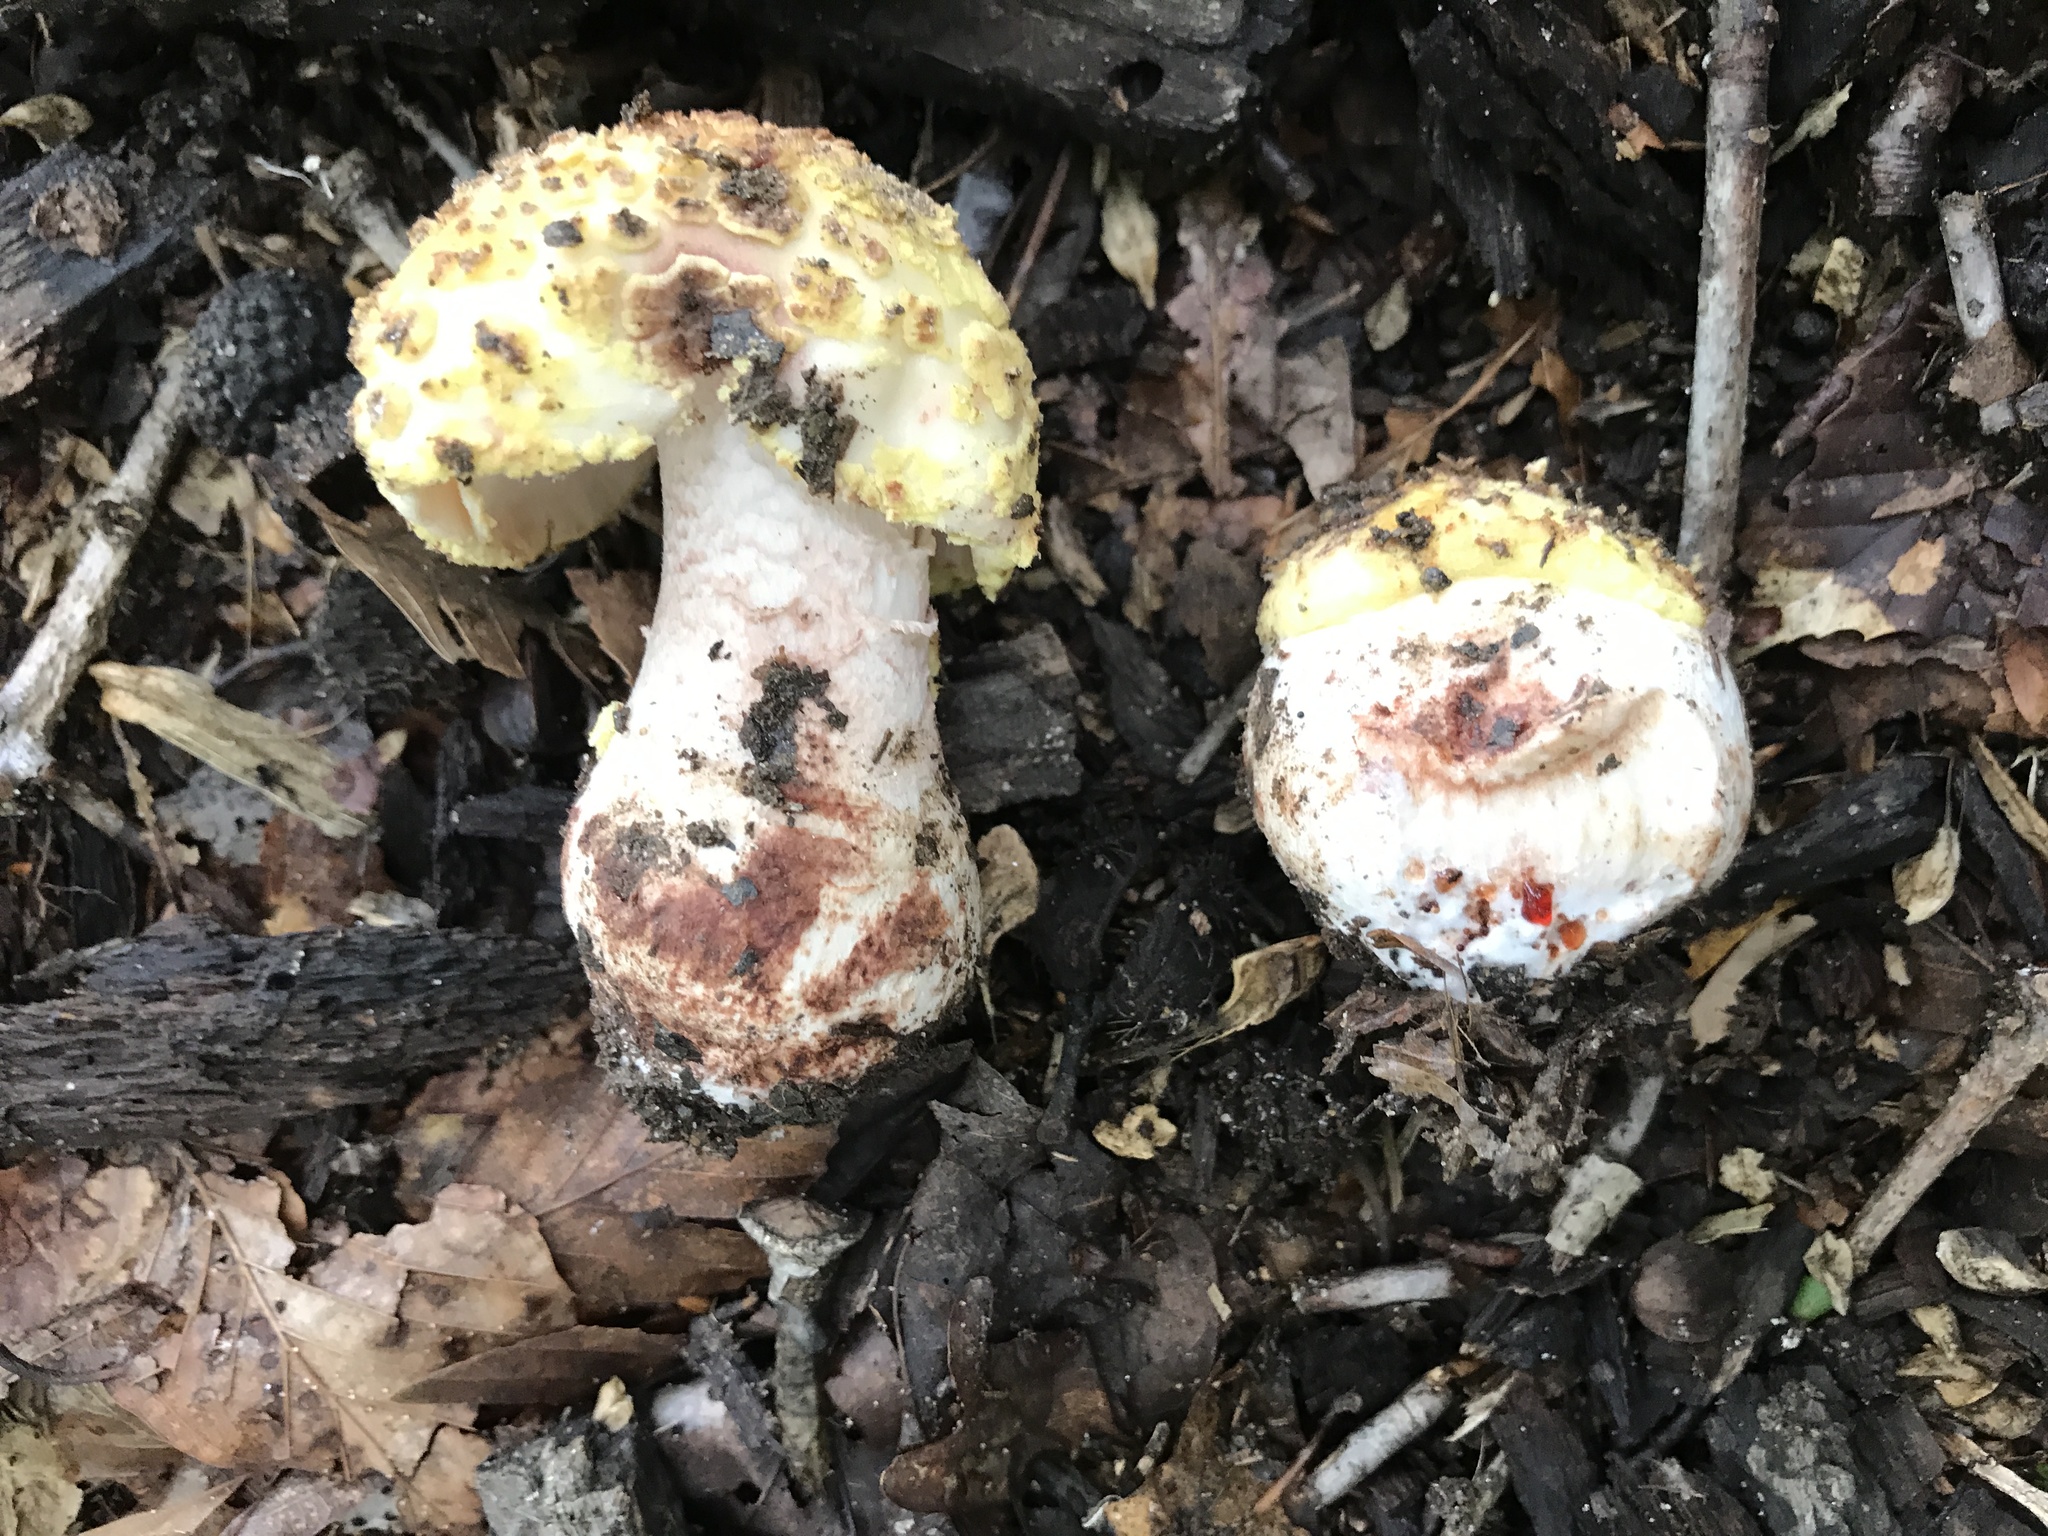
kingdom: Fungi
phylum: Basidiomycota
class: Agaricomycetes
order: Agaricales
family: Amanitaceae
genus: Amanita
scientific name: Amanita flavorubens
